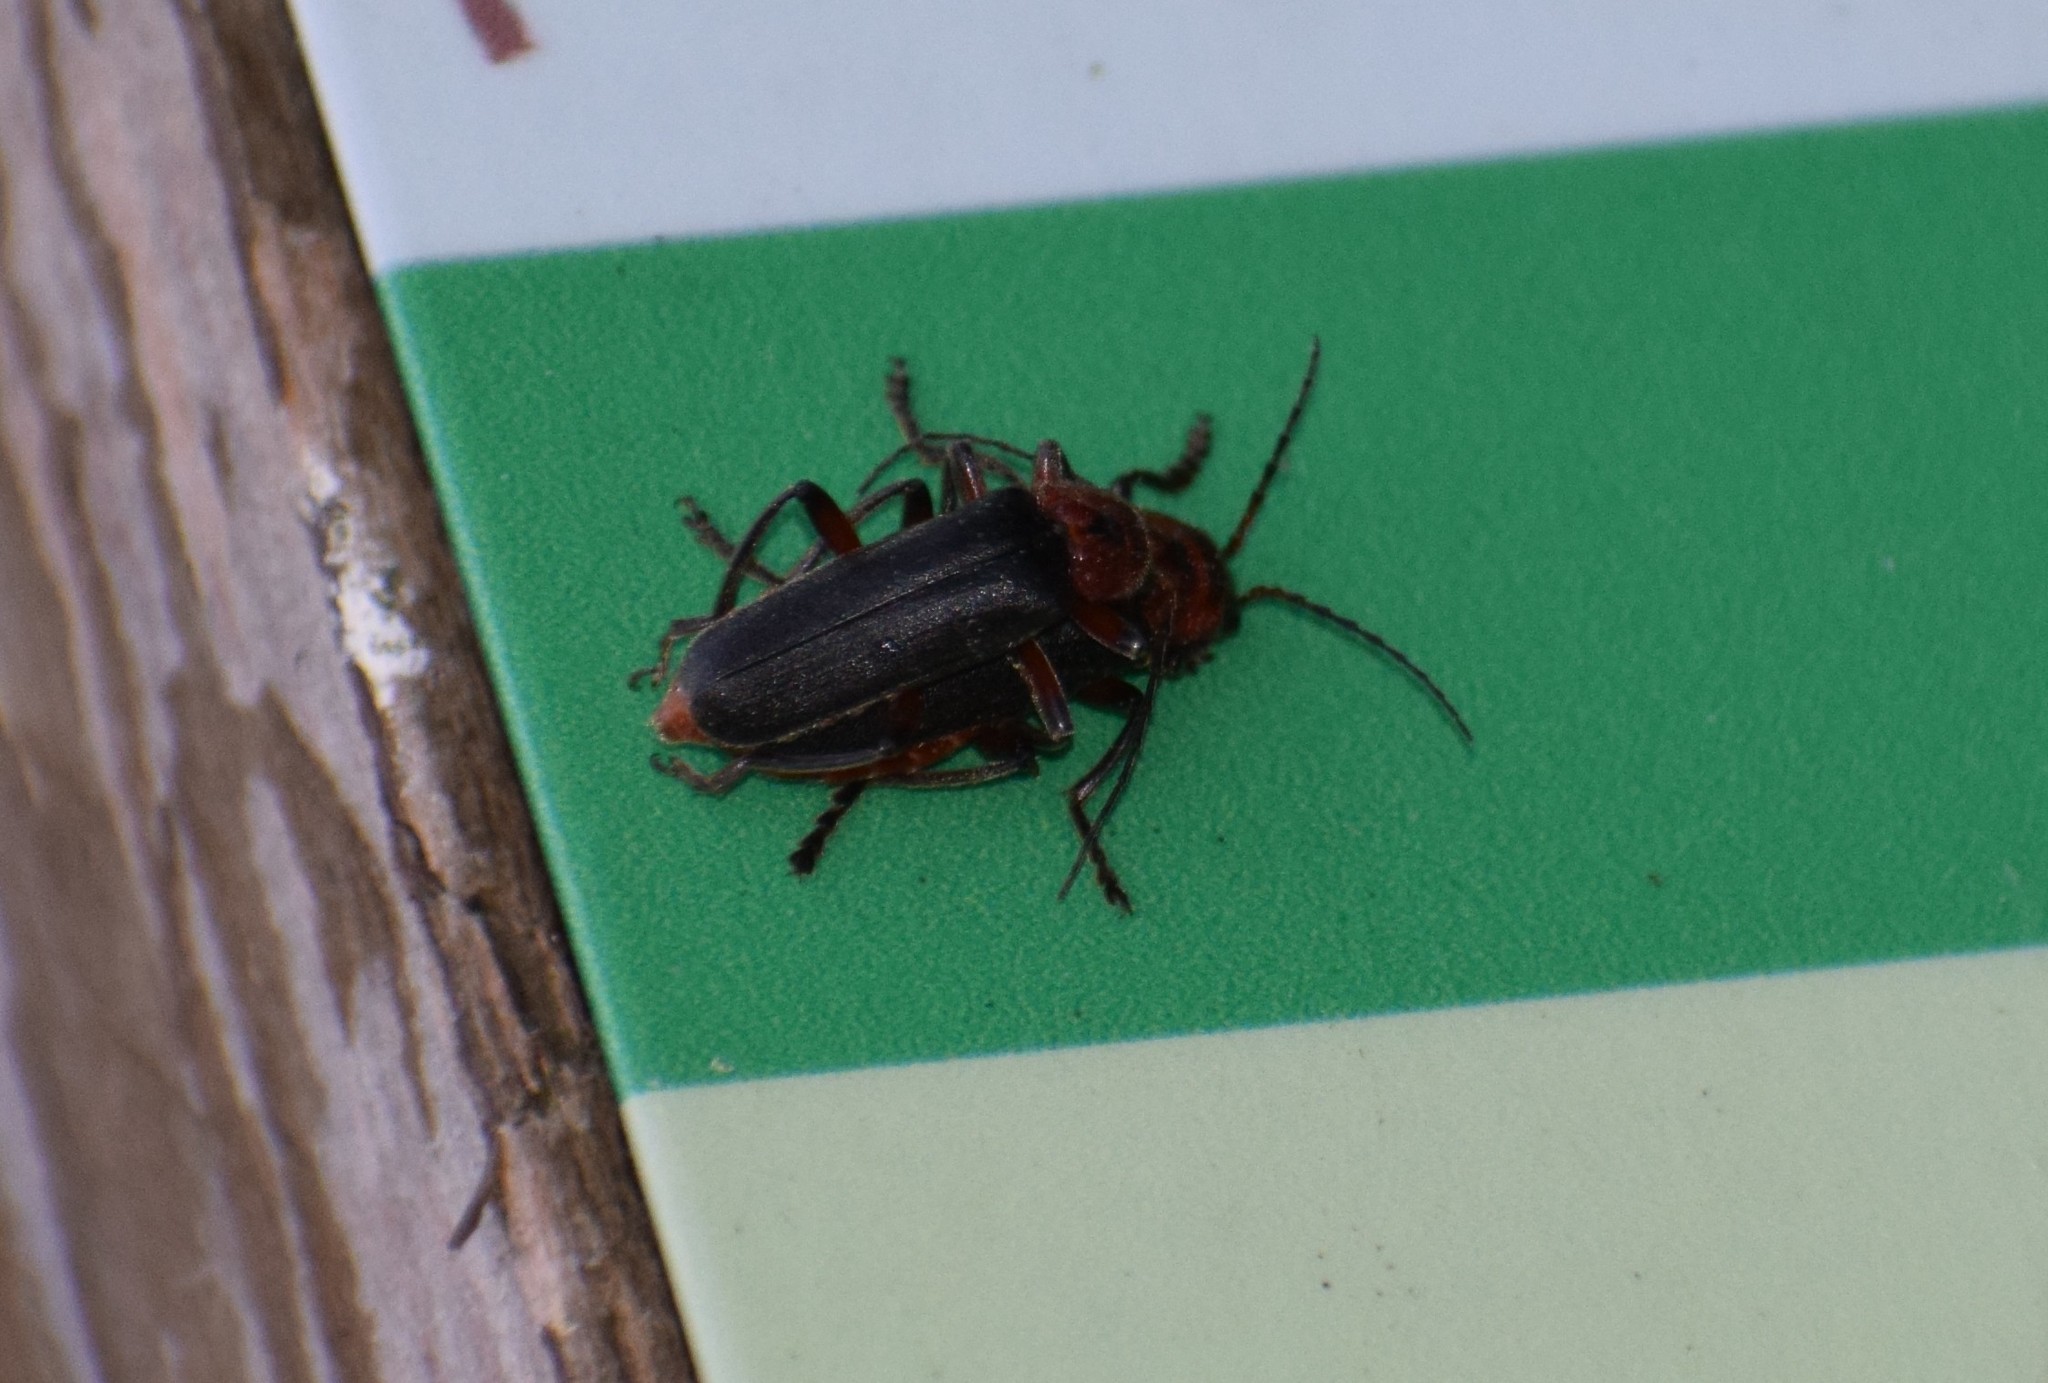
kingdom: Animalia
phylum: Arthropoda
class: Insecta
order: Coleoptera
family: Cantharidae
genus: Cantharis
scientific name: Cantharis rustica
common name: Soldier beetle
